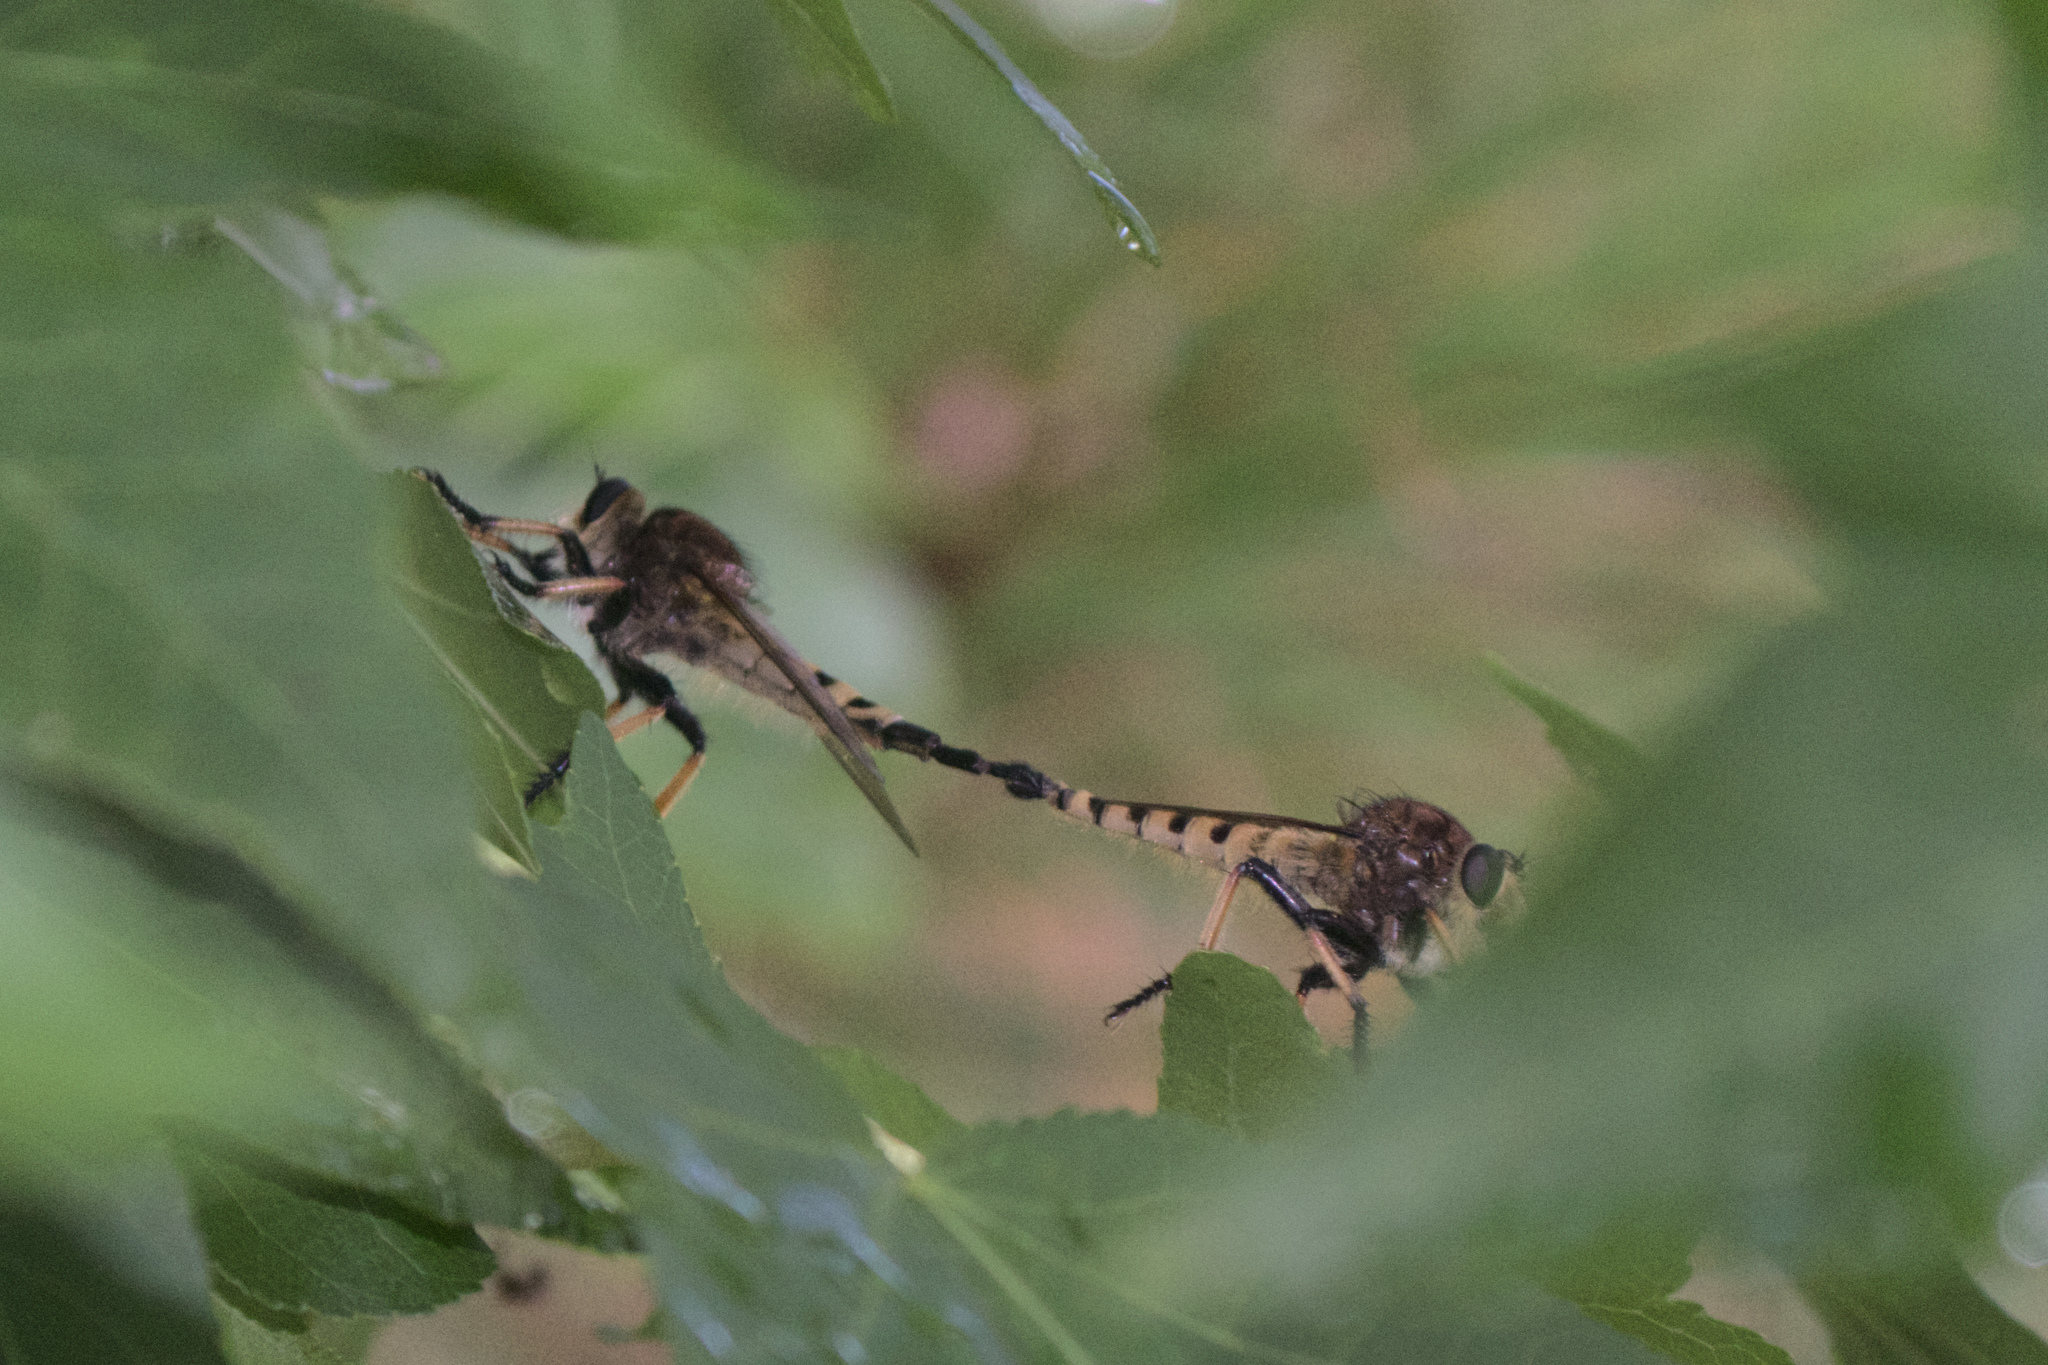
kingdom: Animalia
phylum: Arthropoda
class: Insecta
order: Diptera
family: Asilidae
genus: Promachus
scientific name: Promachus rufipes
